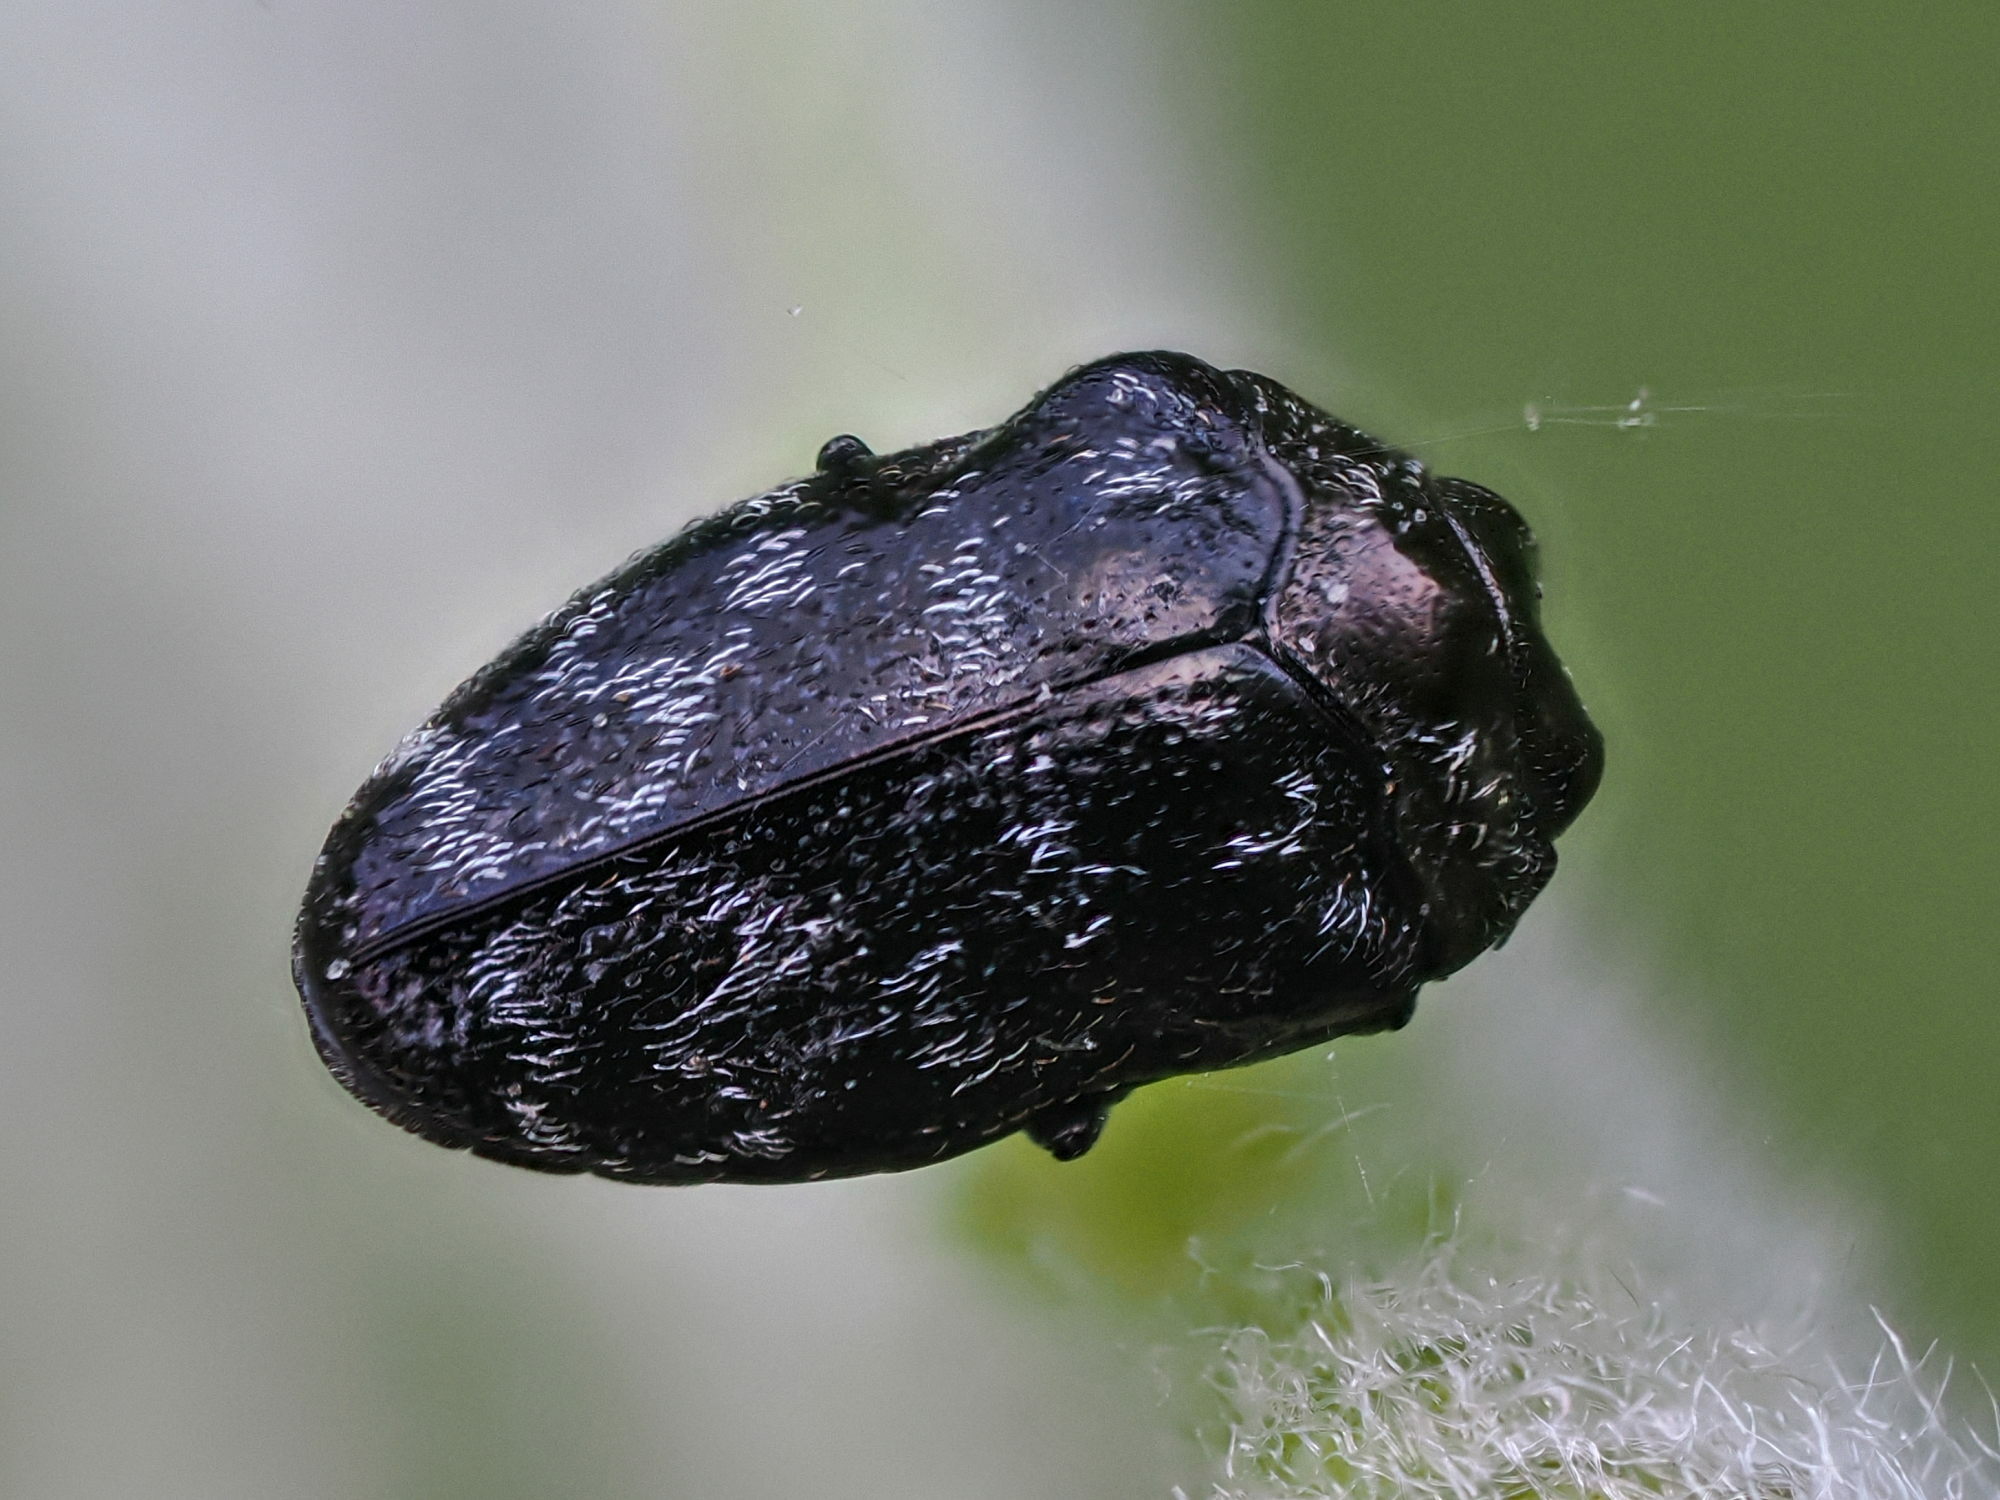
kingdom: Animalia
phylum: Arthropoda
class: Insecta
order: Coleoptera
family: Buprestidae
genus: Trachys
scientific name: Trachys minutus
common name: Metallic wood-boring beetle
